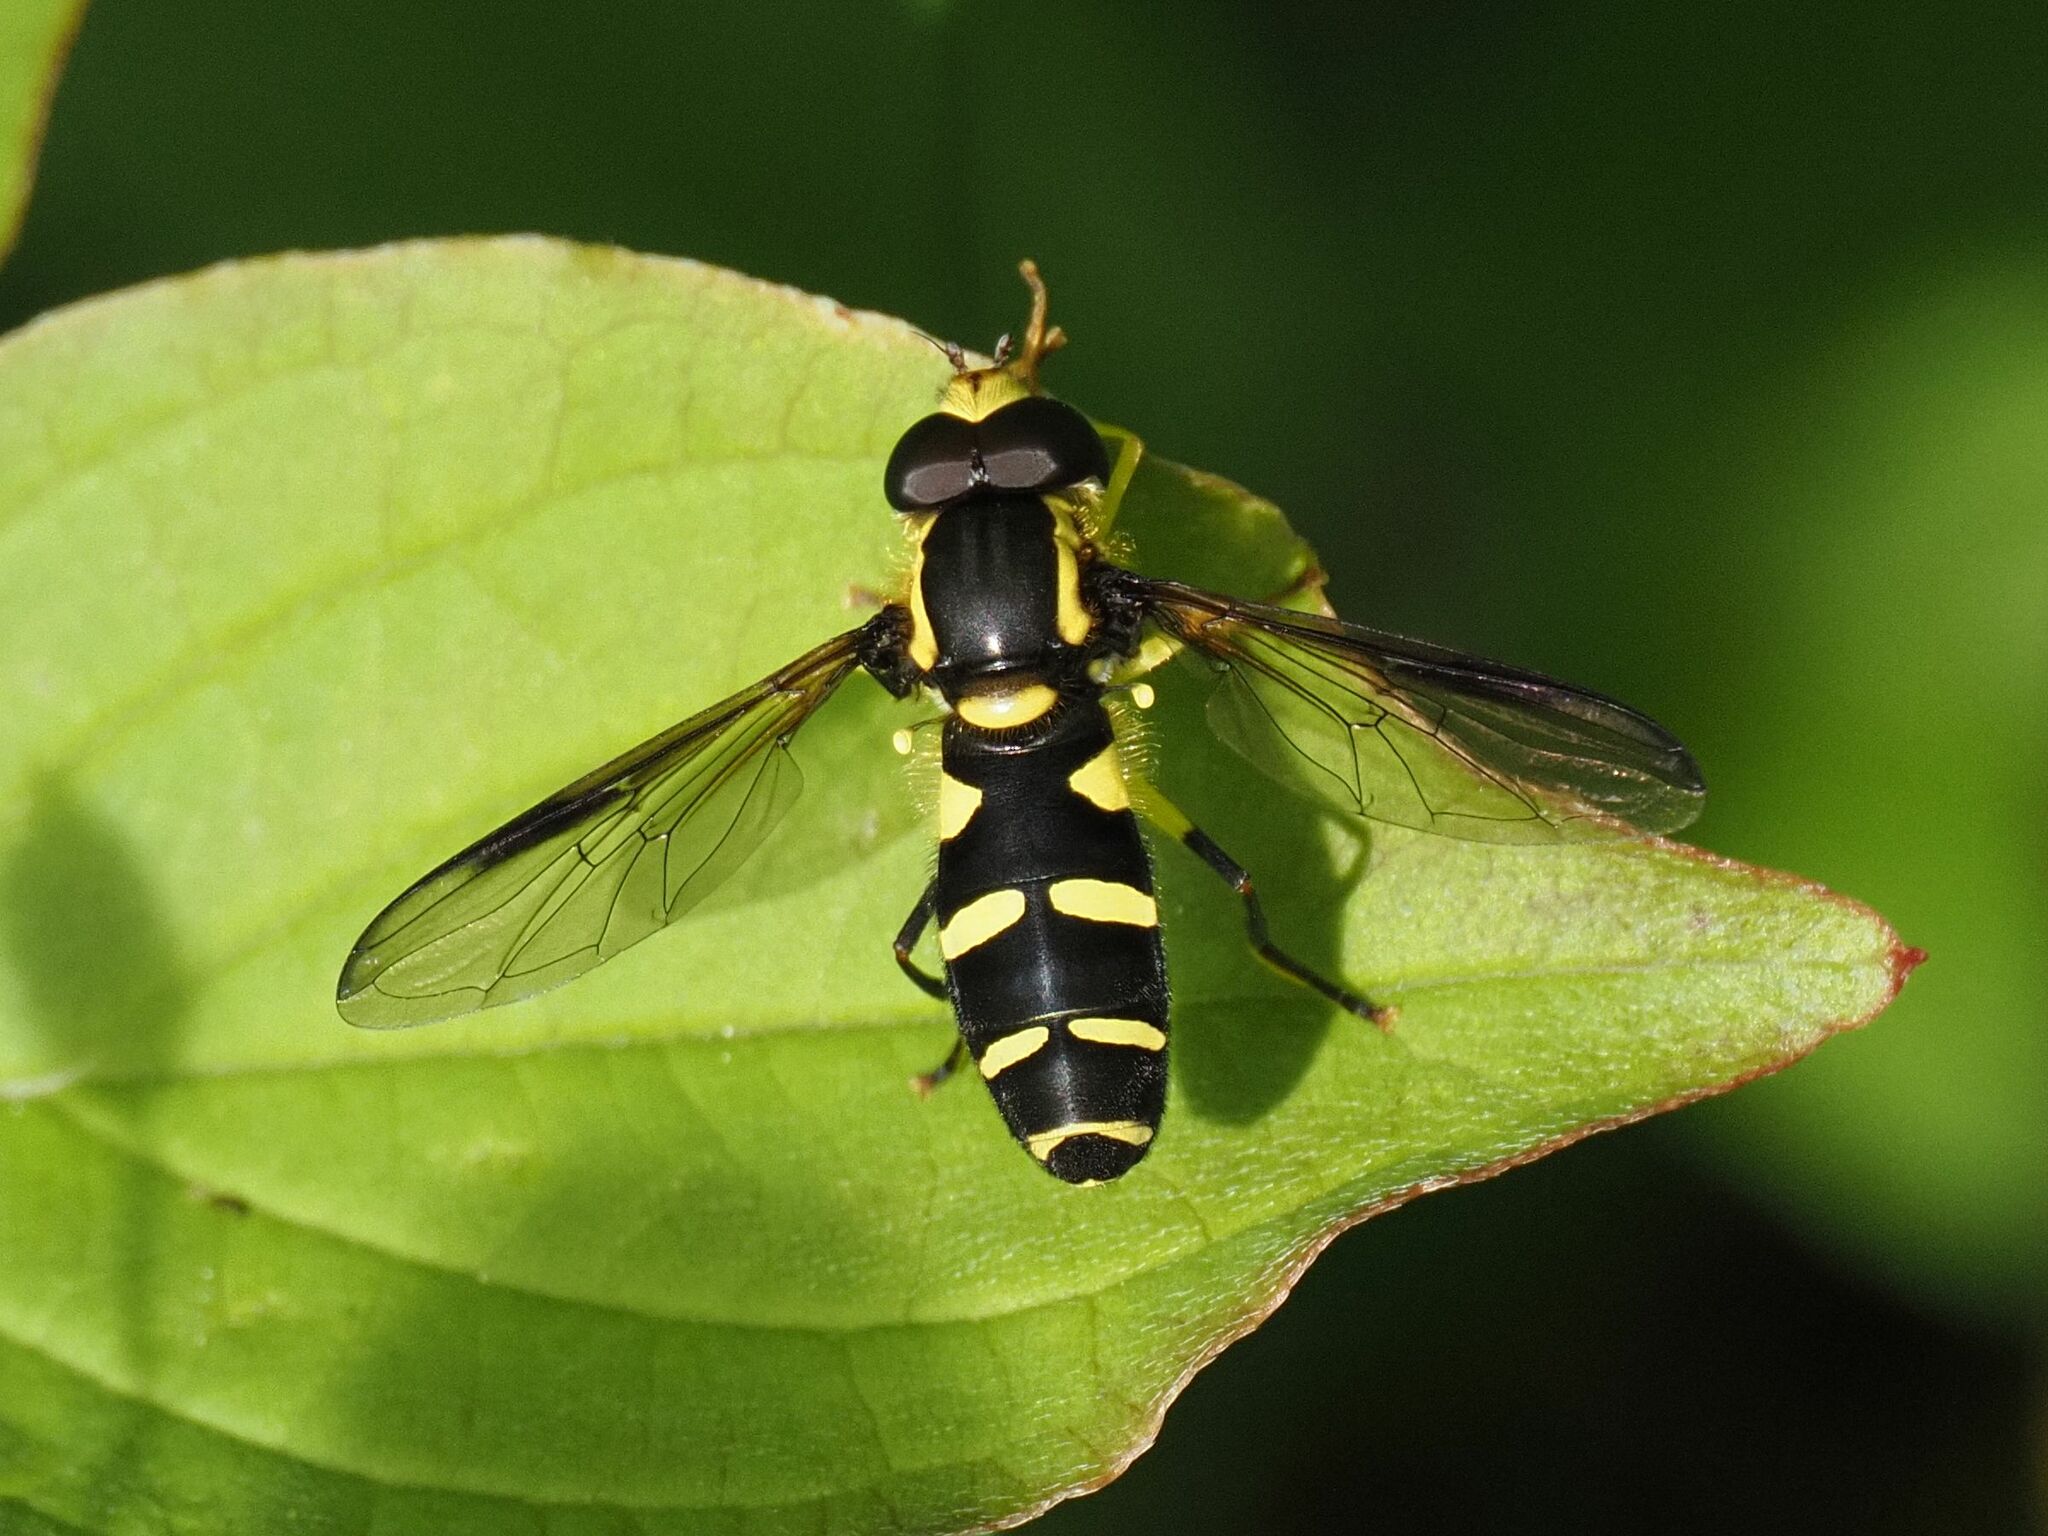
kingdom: Animalia
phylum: Arthropoda
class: Insecta
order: Diptera
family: Syrphidae
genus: Philhelius
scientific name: Philhelius dives
